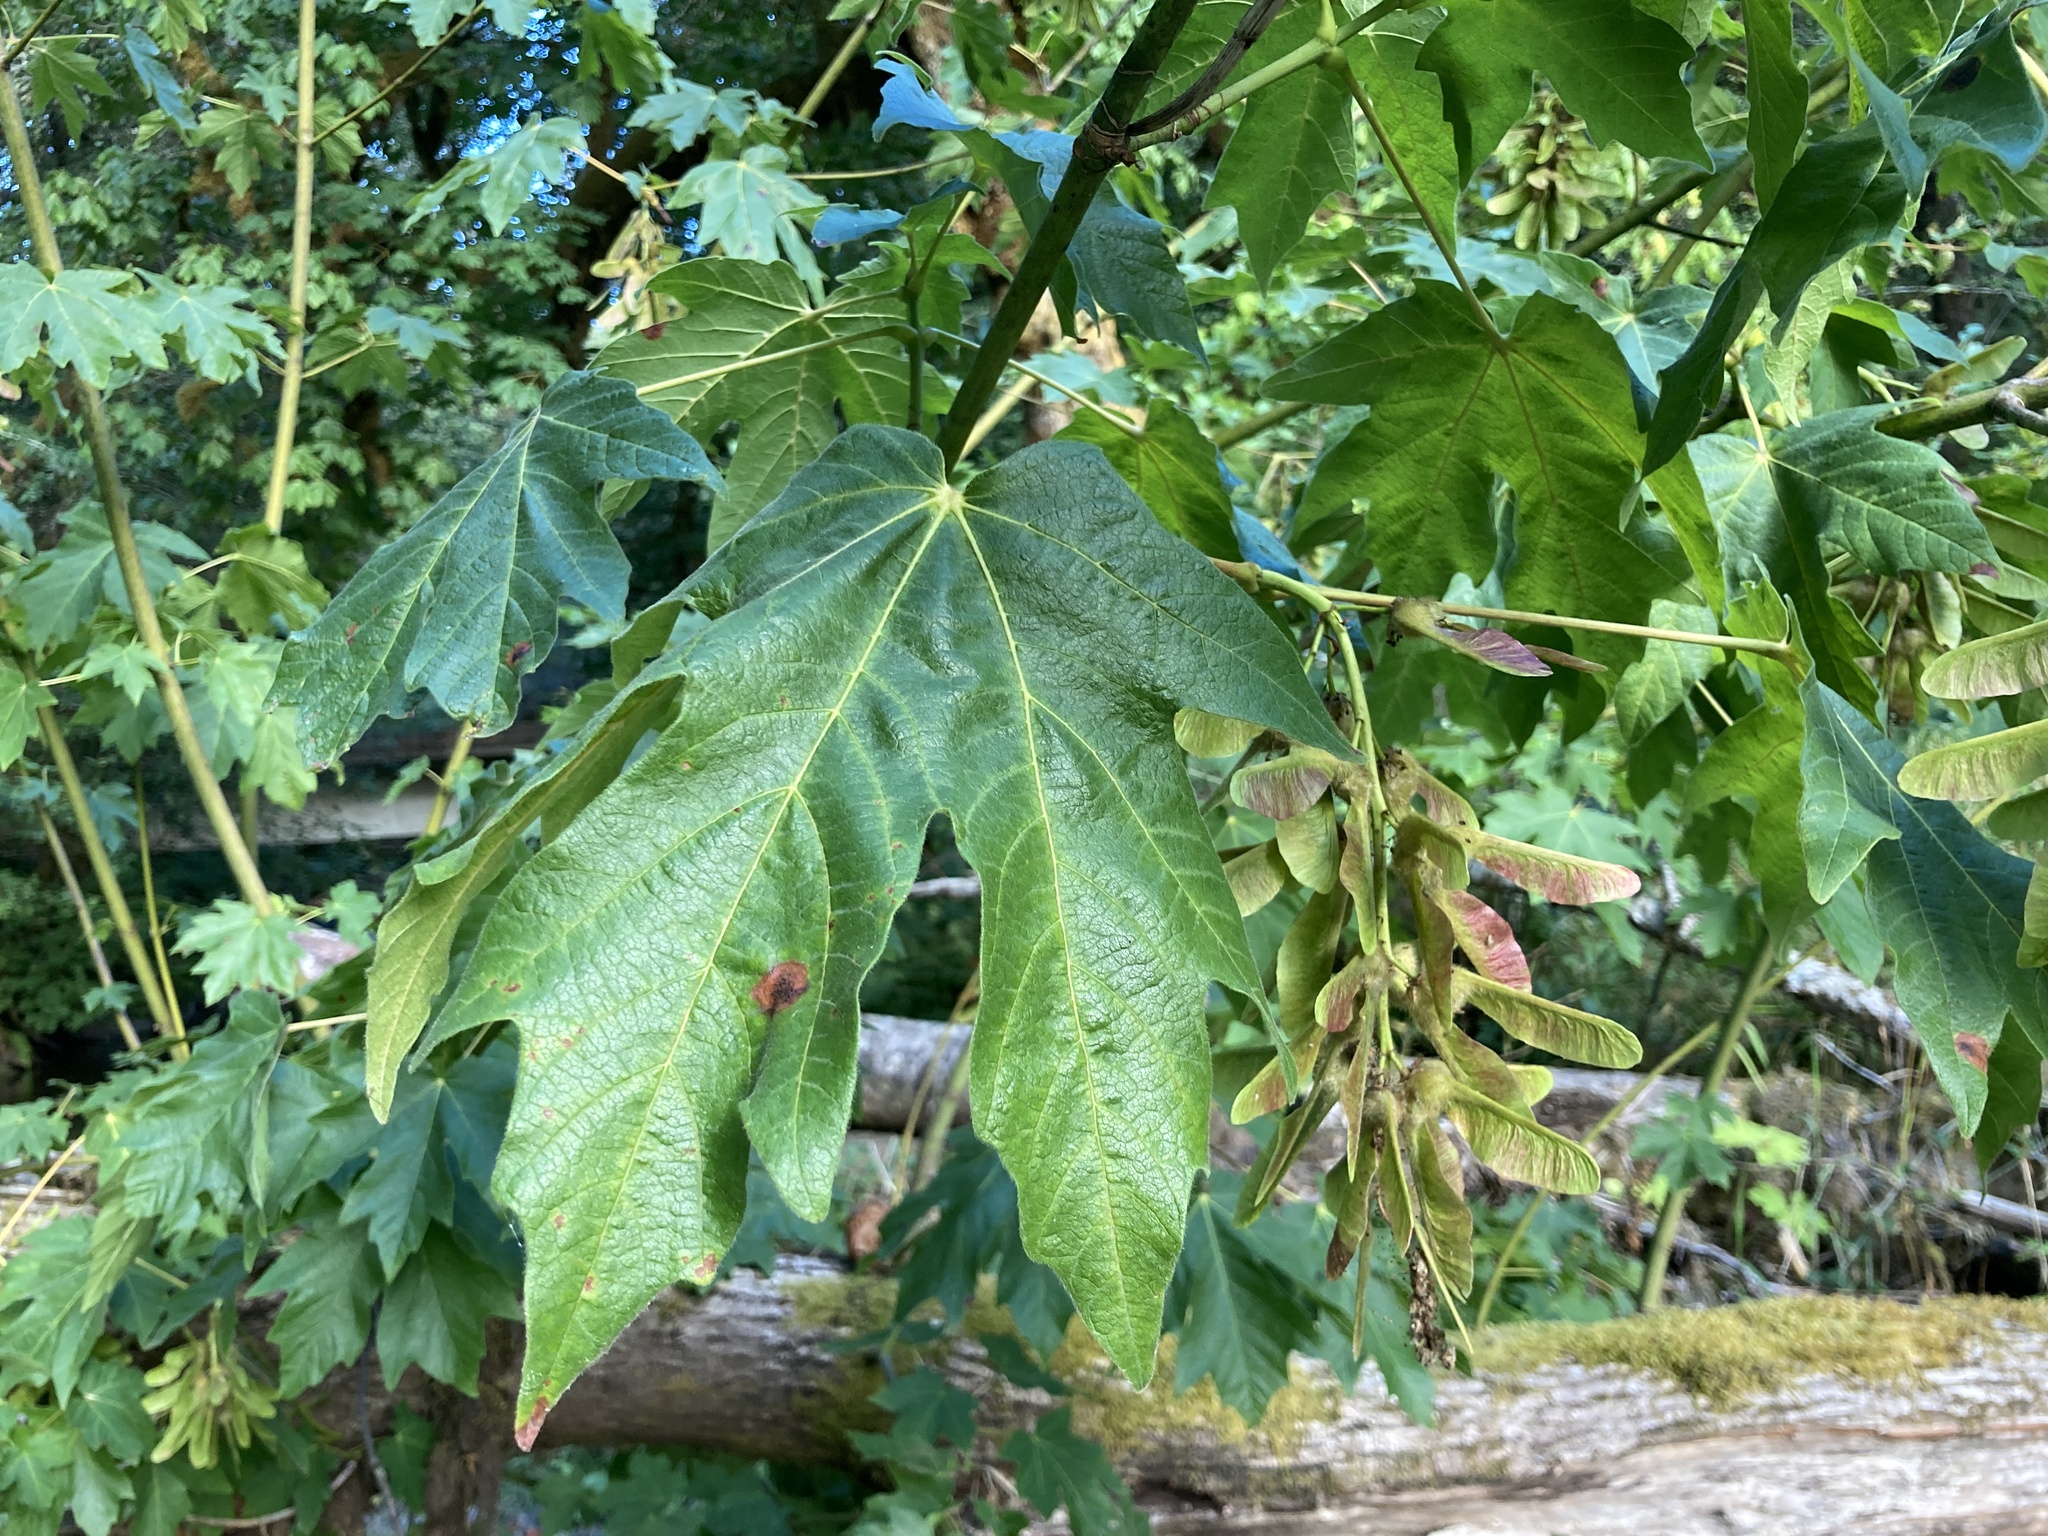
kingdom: Plantae
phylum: Tracheophyta
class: Magnoliopsida
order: Sapindales
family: Sapindaceae
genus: Acer
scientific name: Acer macrophyllum
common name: Oregon maple
